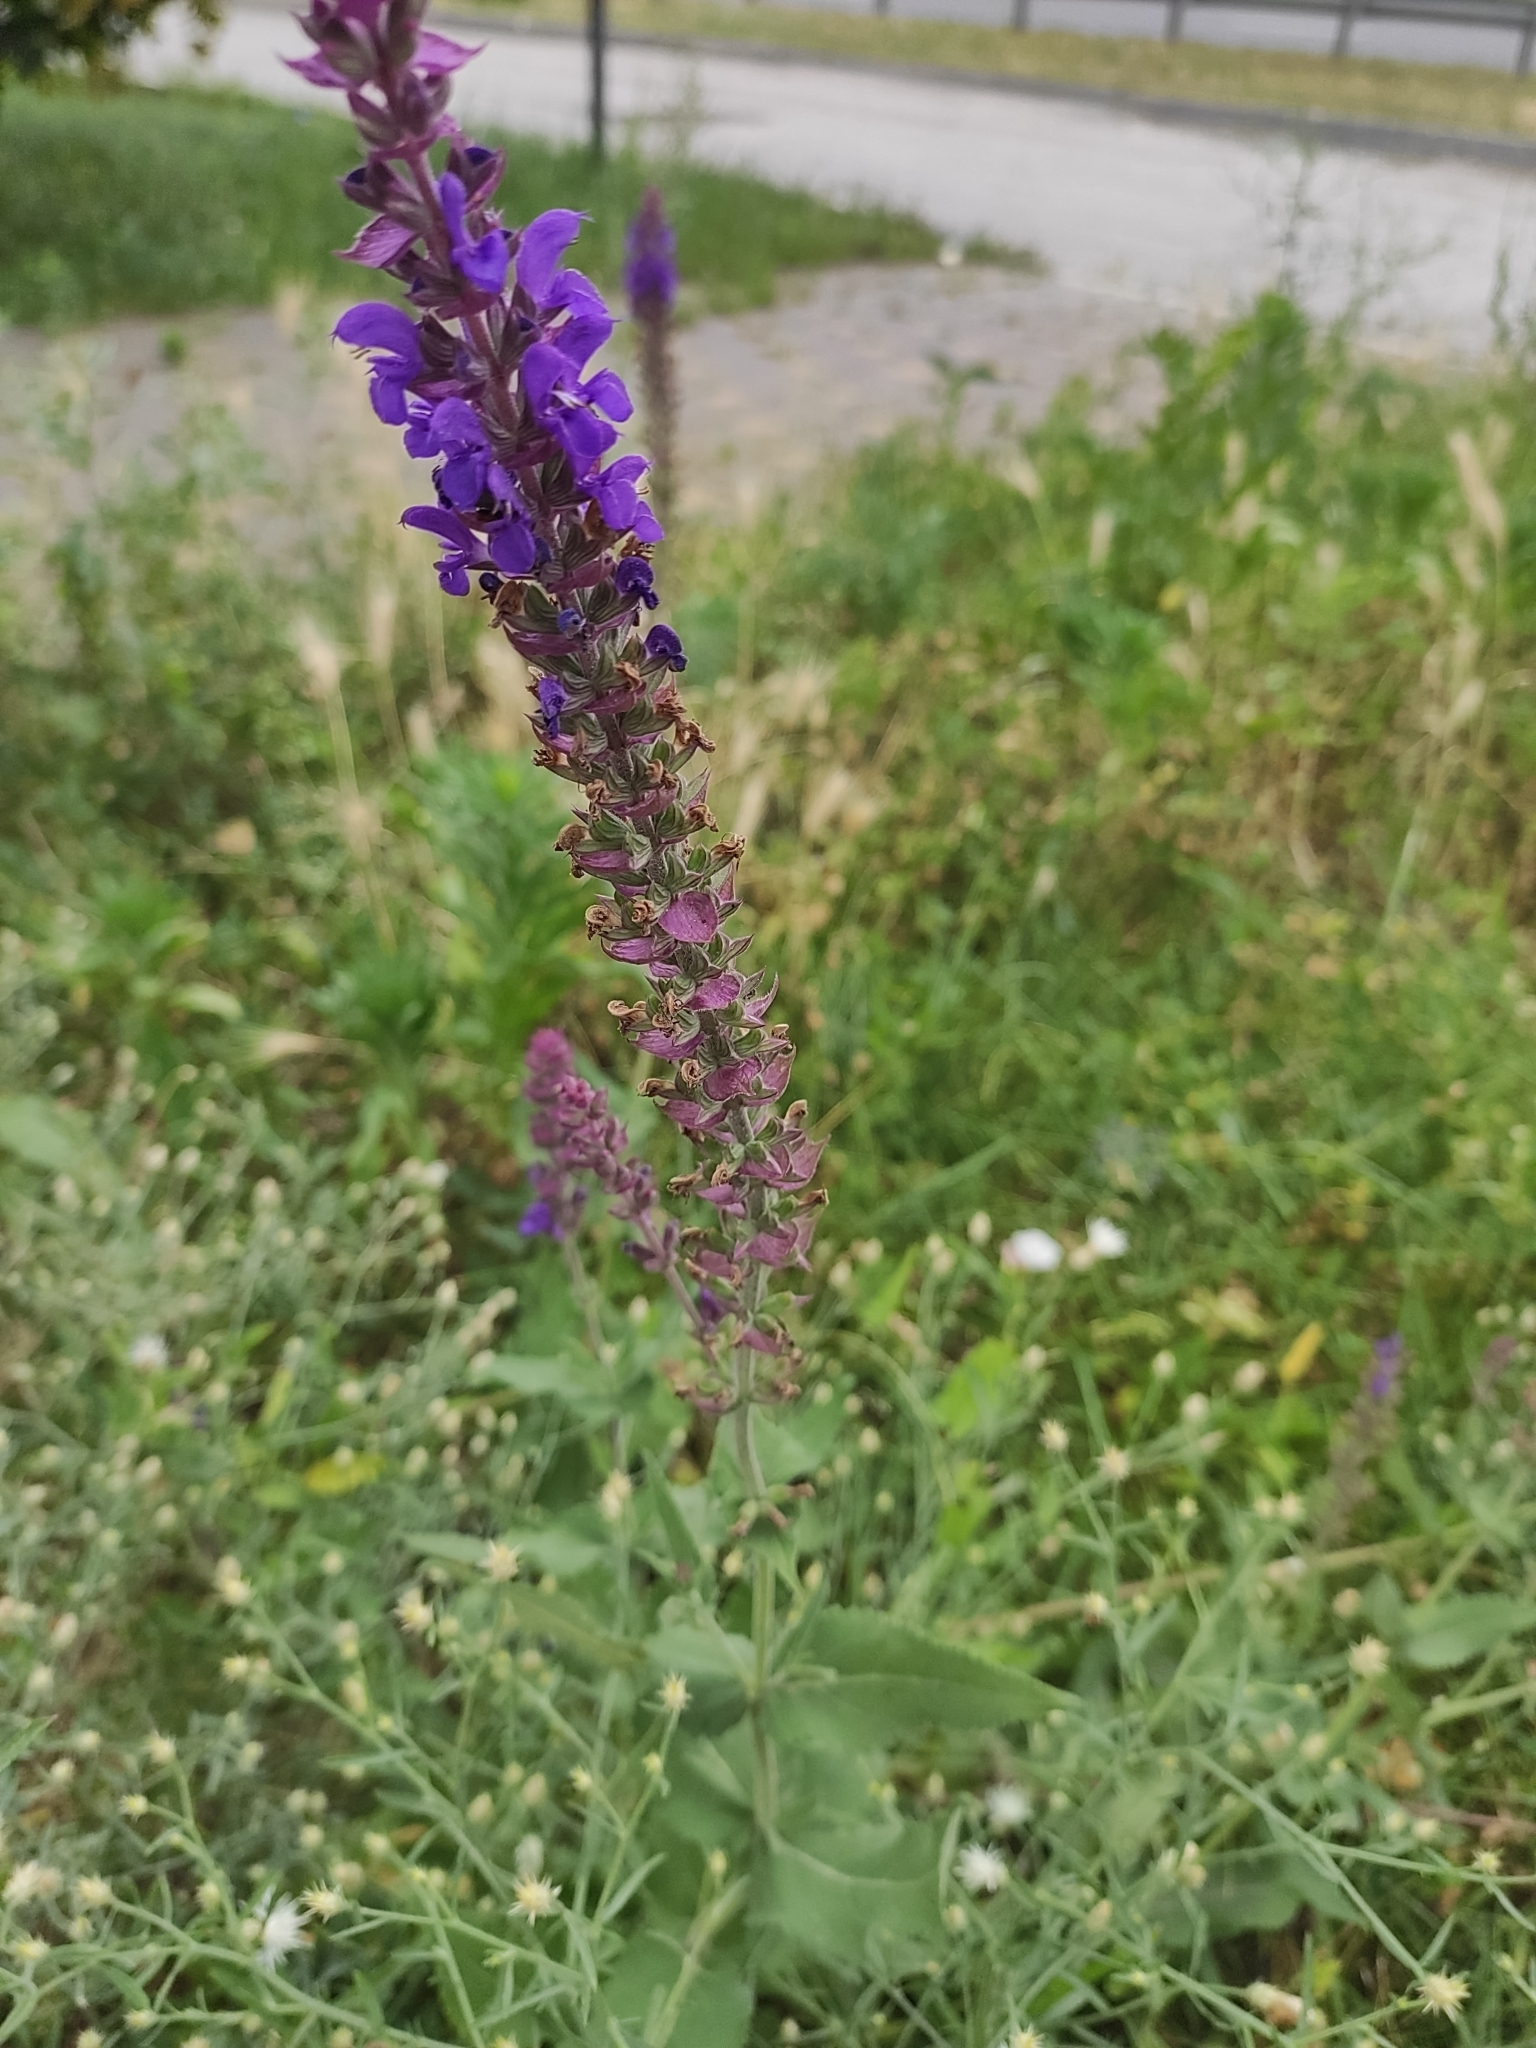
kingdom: Plantae
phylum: Tracheophyta
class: Magnoliopsida
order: Lamiales
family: Lamiaceae
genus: Salvia
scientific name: Salvia nemorosa
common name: Balkan clary
